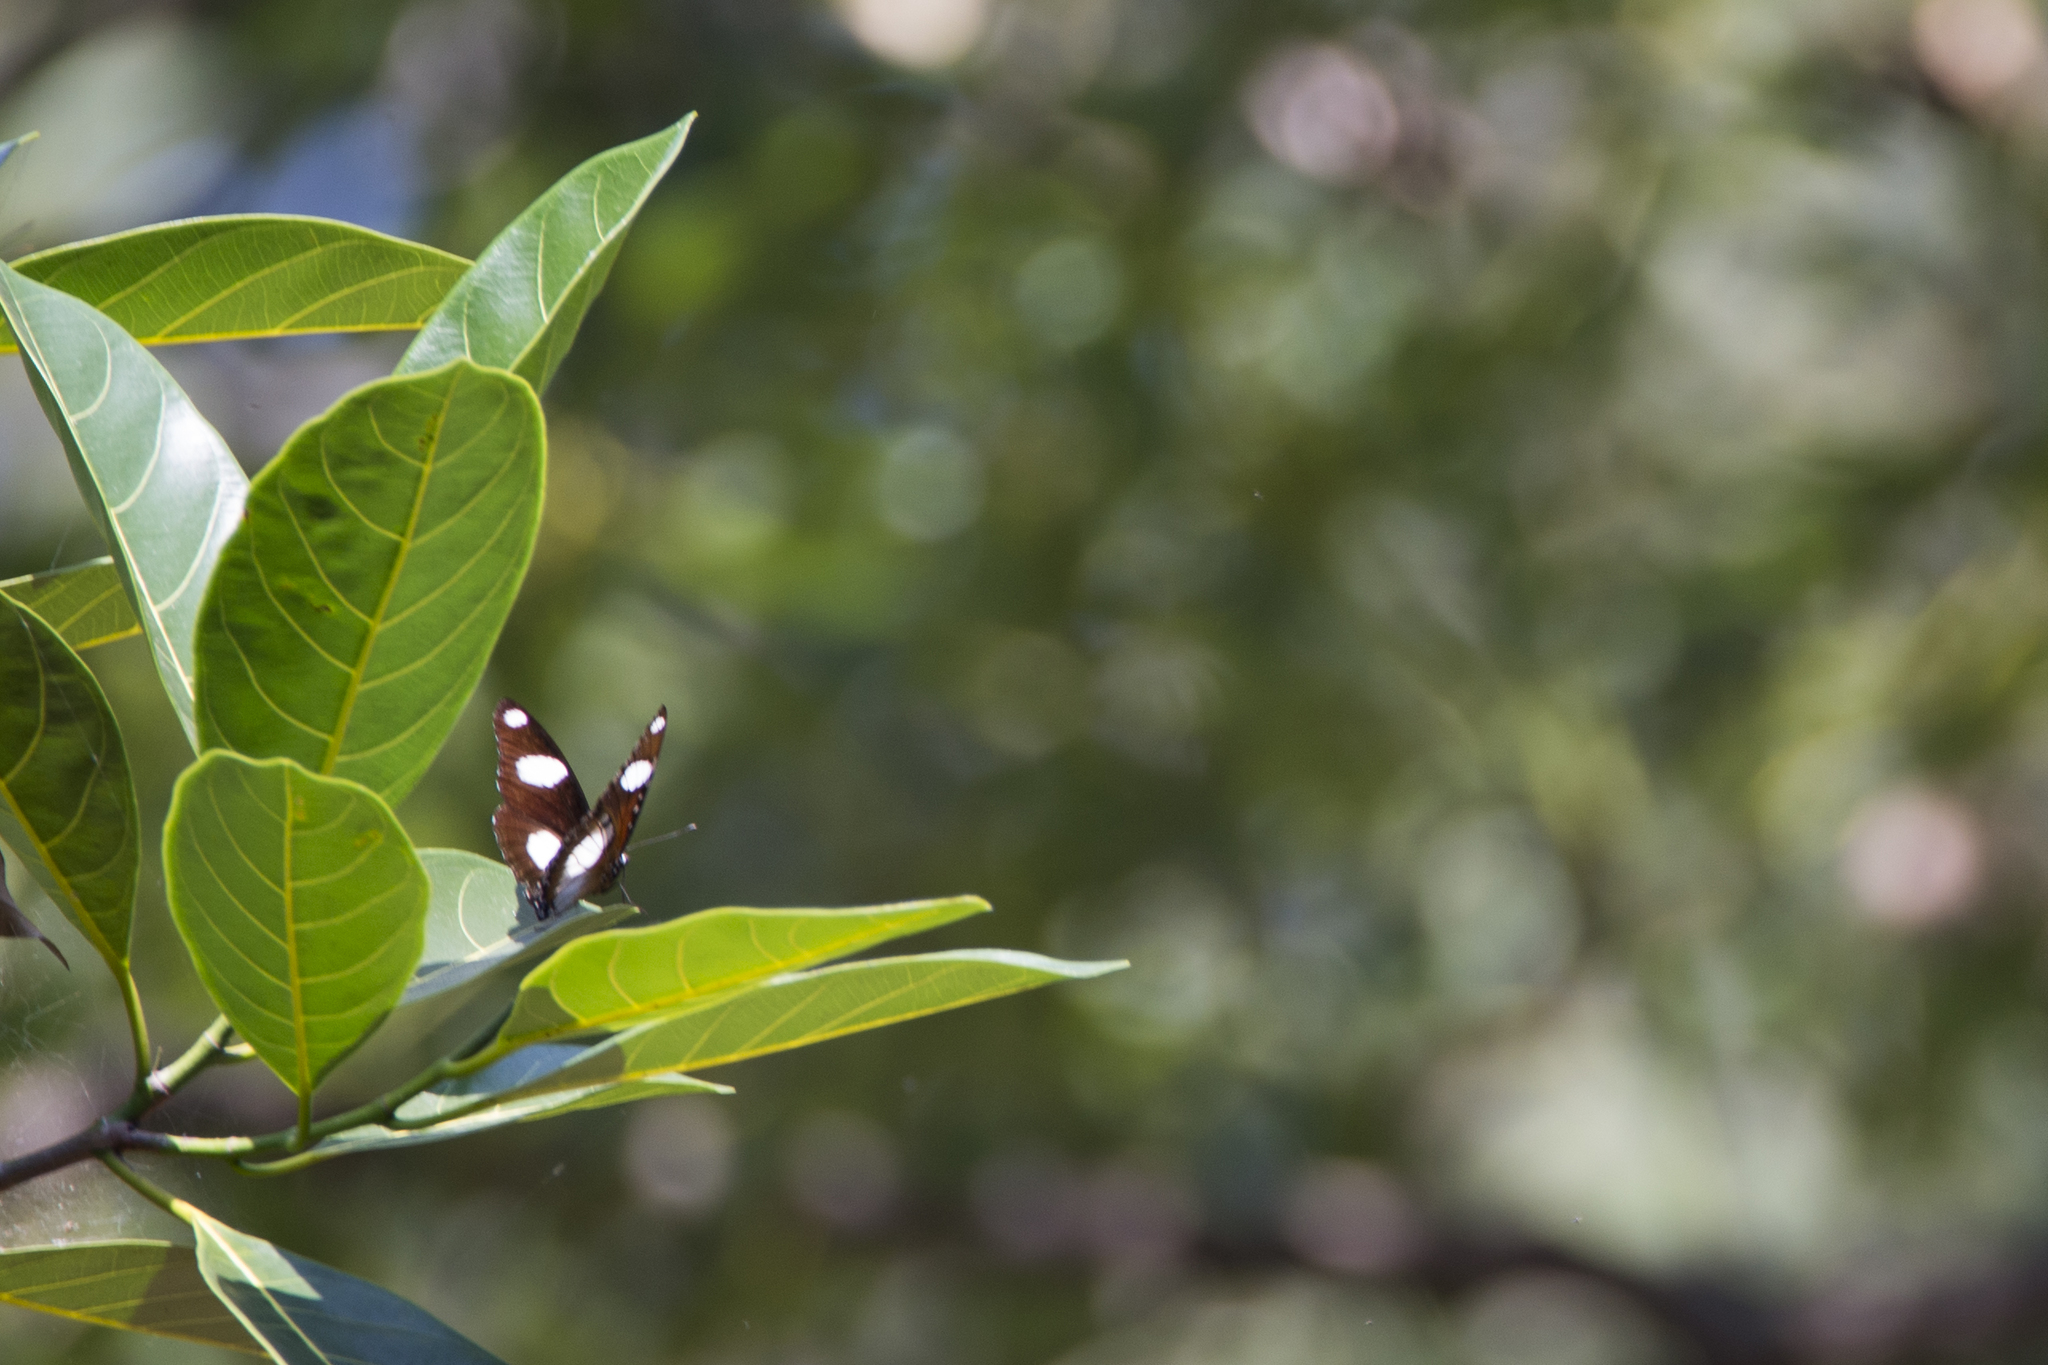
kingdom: Animalia
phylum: Arthropoda
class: Insecta
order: Lepidoptera
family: Nymphalidae
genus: Hypolimnas
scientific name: Hypolimnas misippus
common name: False plain tiger
